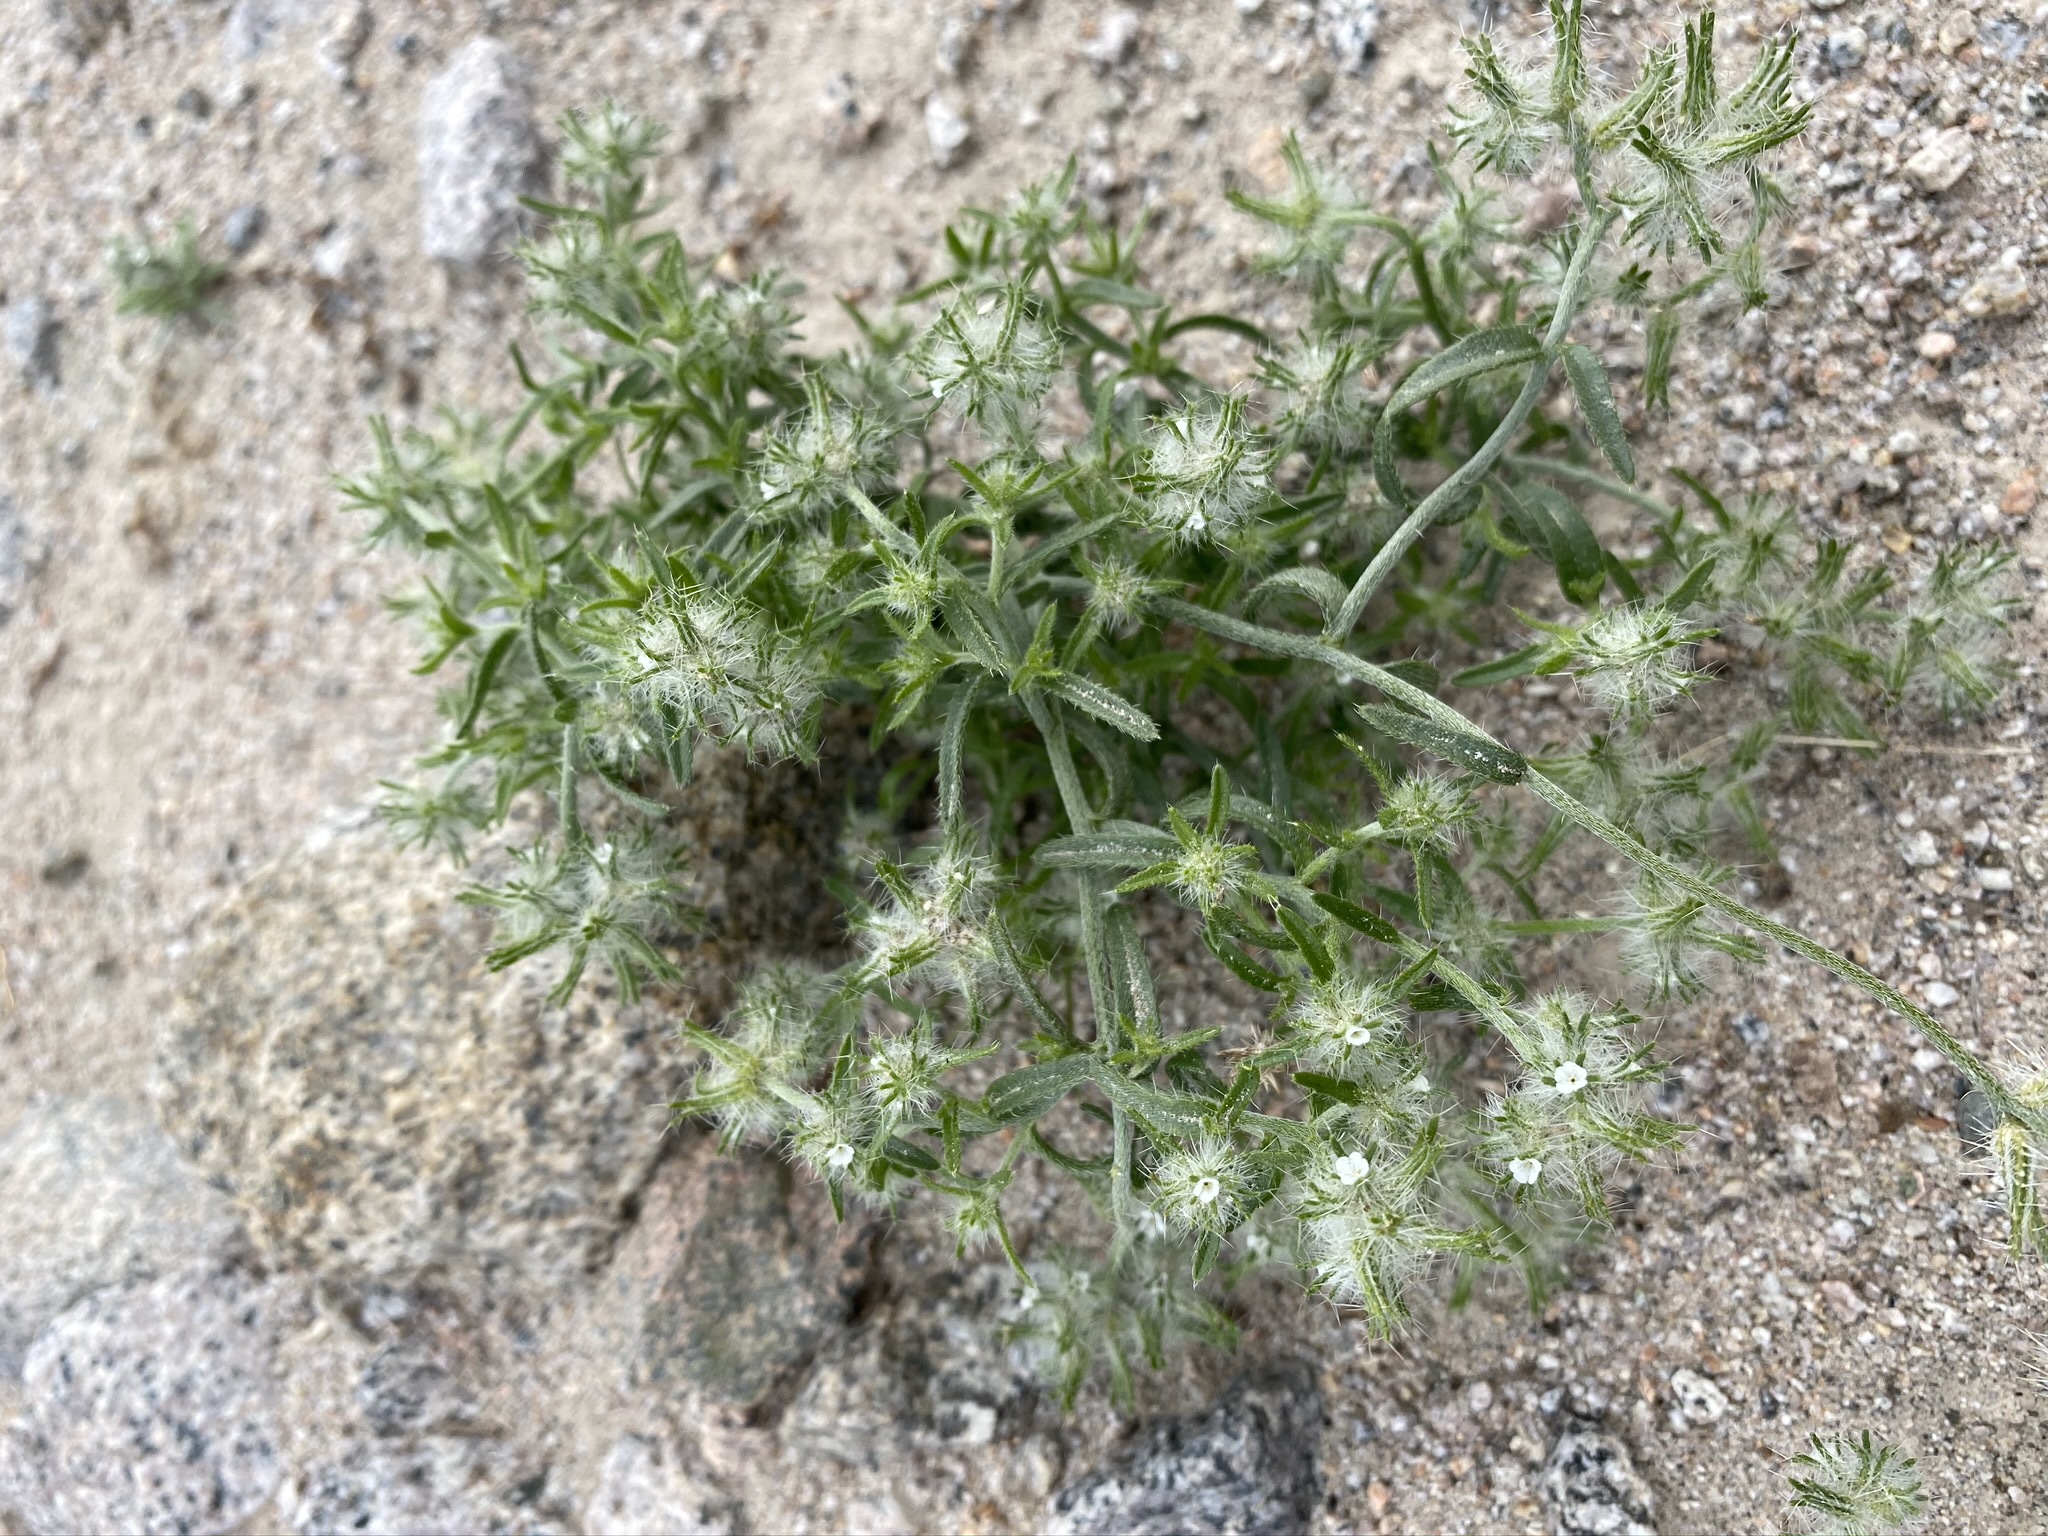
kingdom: Plantae
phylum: Tracheophyta
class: Magnoliopsida
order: Boraginales
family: Boraginaceae
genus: Cryptantha
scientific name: Cryptantha nevadensis
